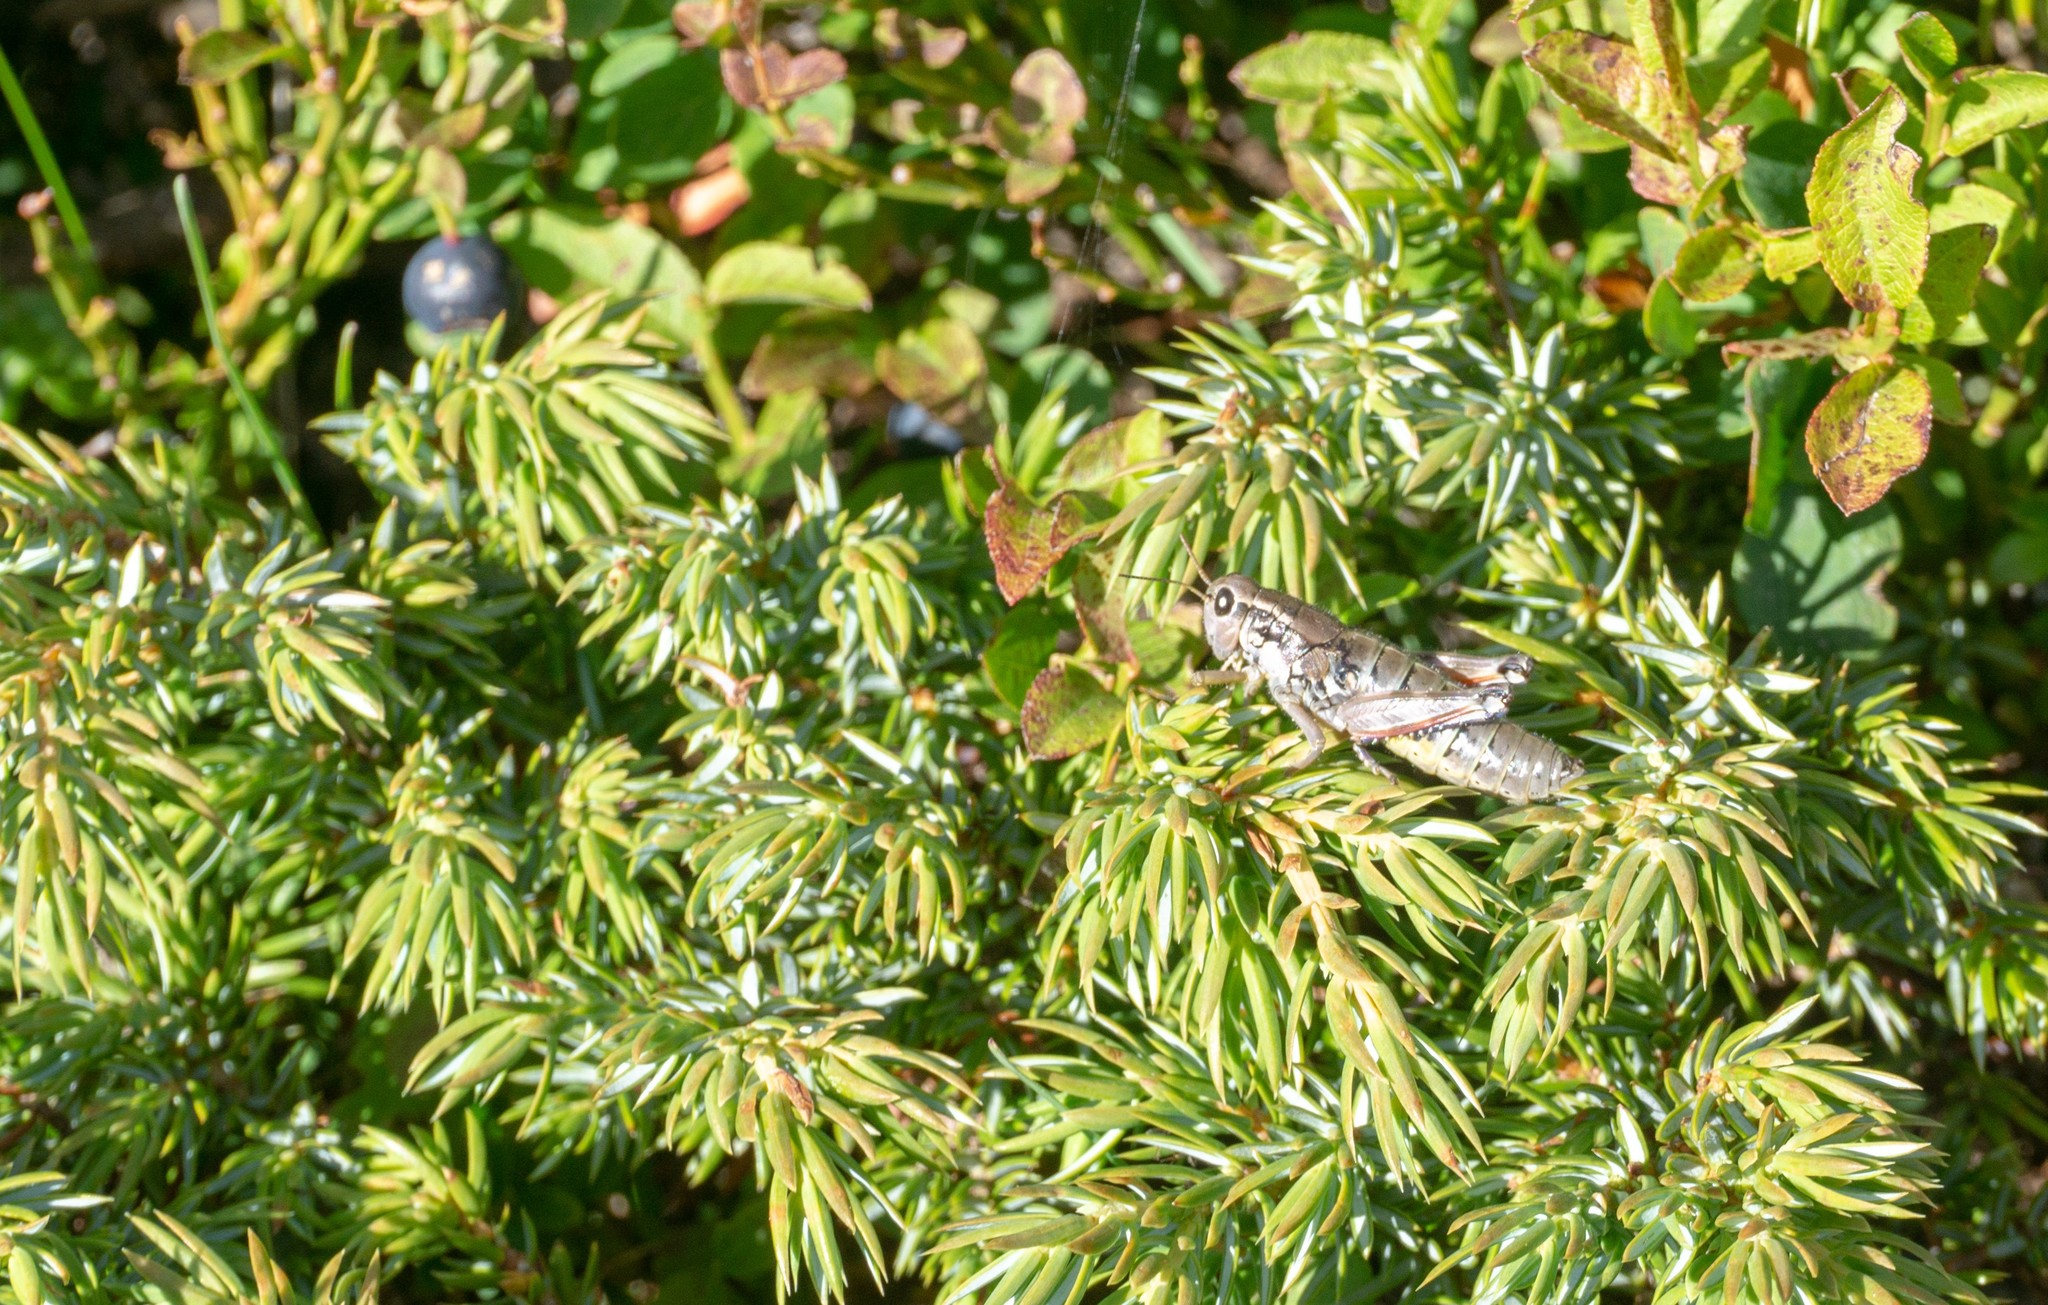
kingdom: Animalia
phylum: Arthropoda
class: Insecta
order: Orthoptera
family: Acrididae
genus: Podisma
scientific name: Podisma pedestris
